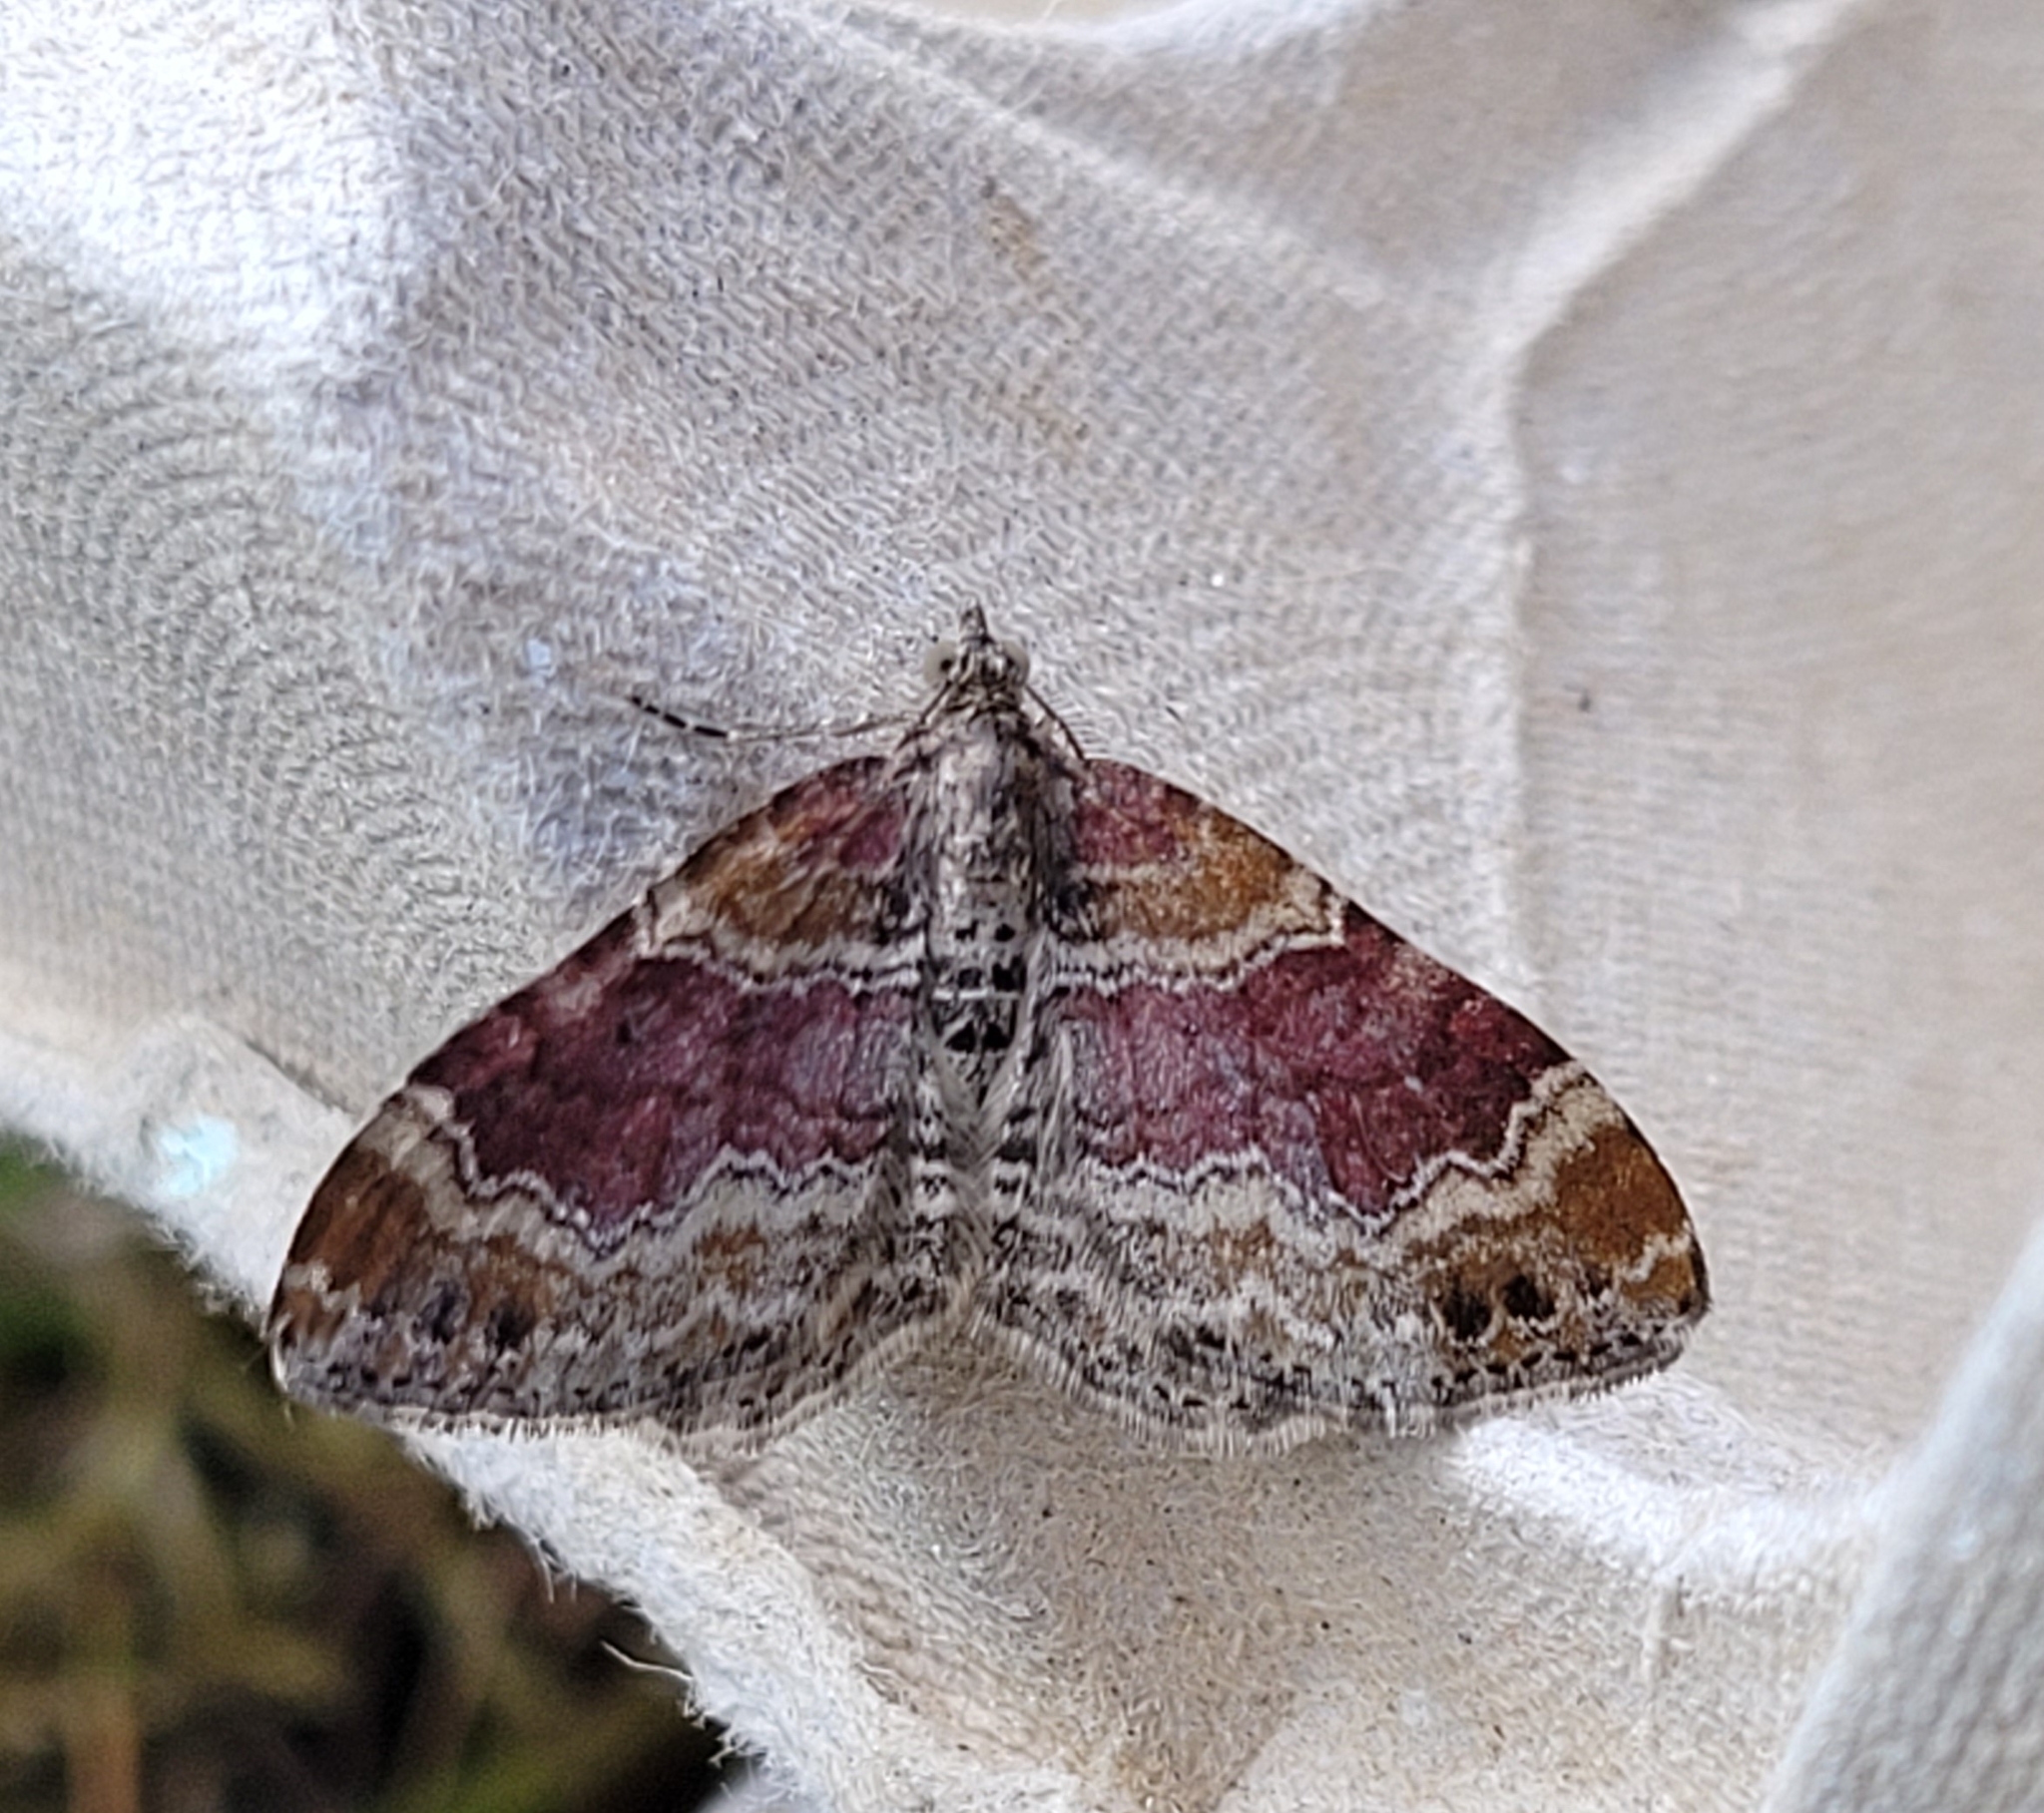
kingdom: Animalia
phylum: Arthropoda
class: Insecta
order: Lepidoptera
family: Geometridae
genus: Xanthorhoe
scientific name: Xanthorhoe spadicearia
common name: Red twin-spot carpet
